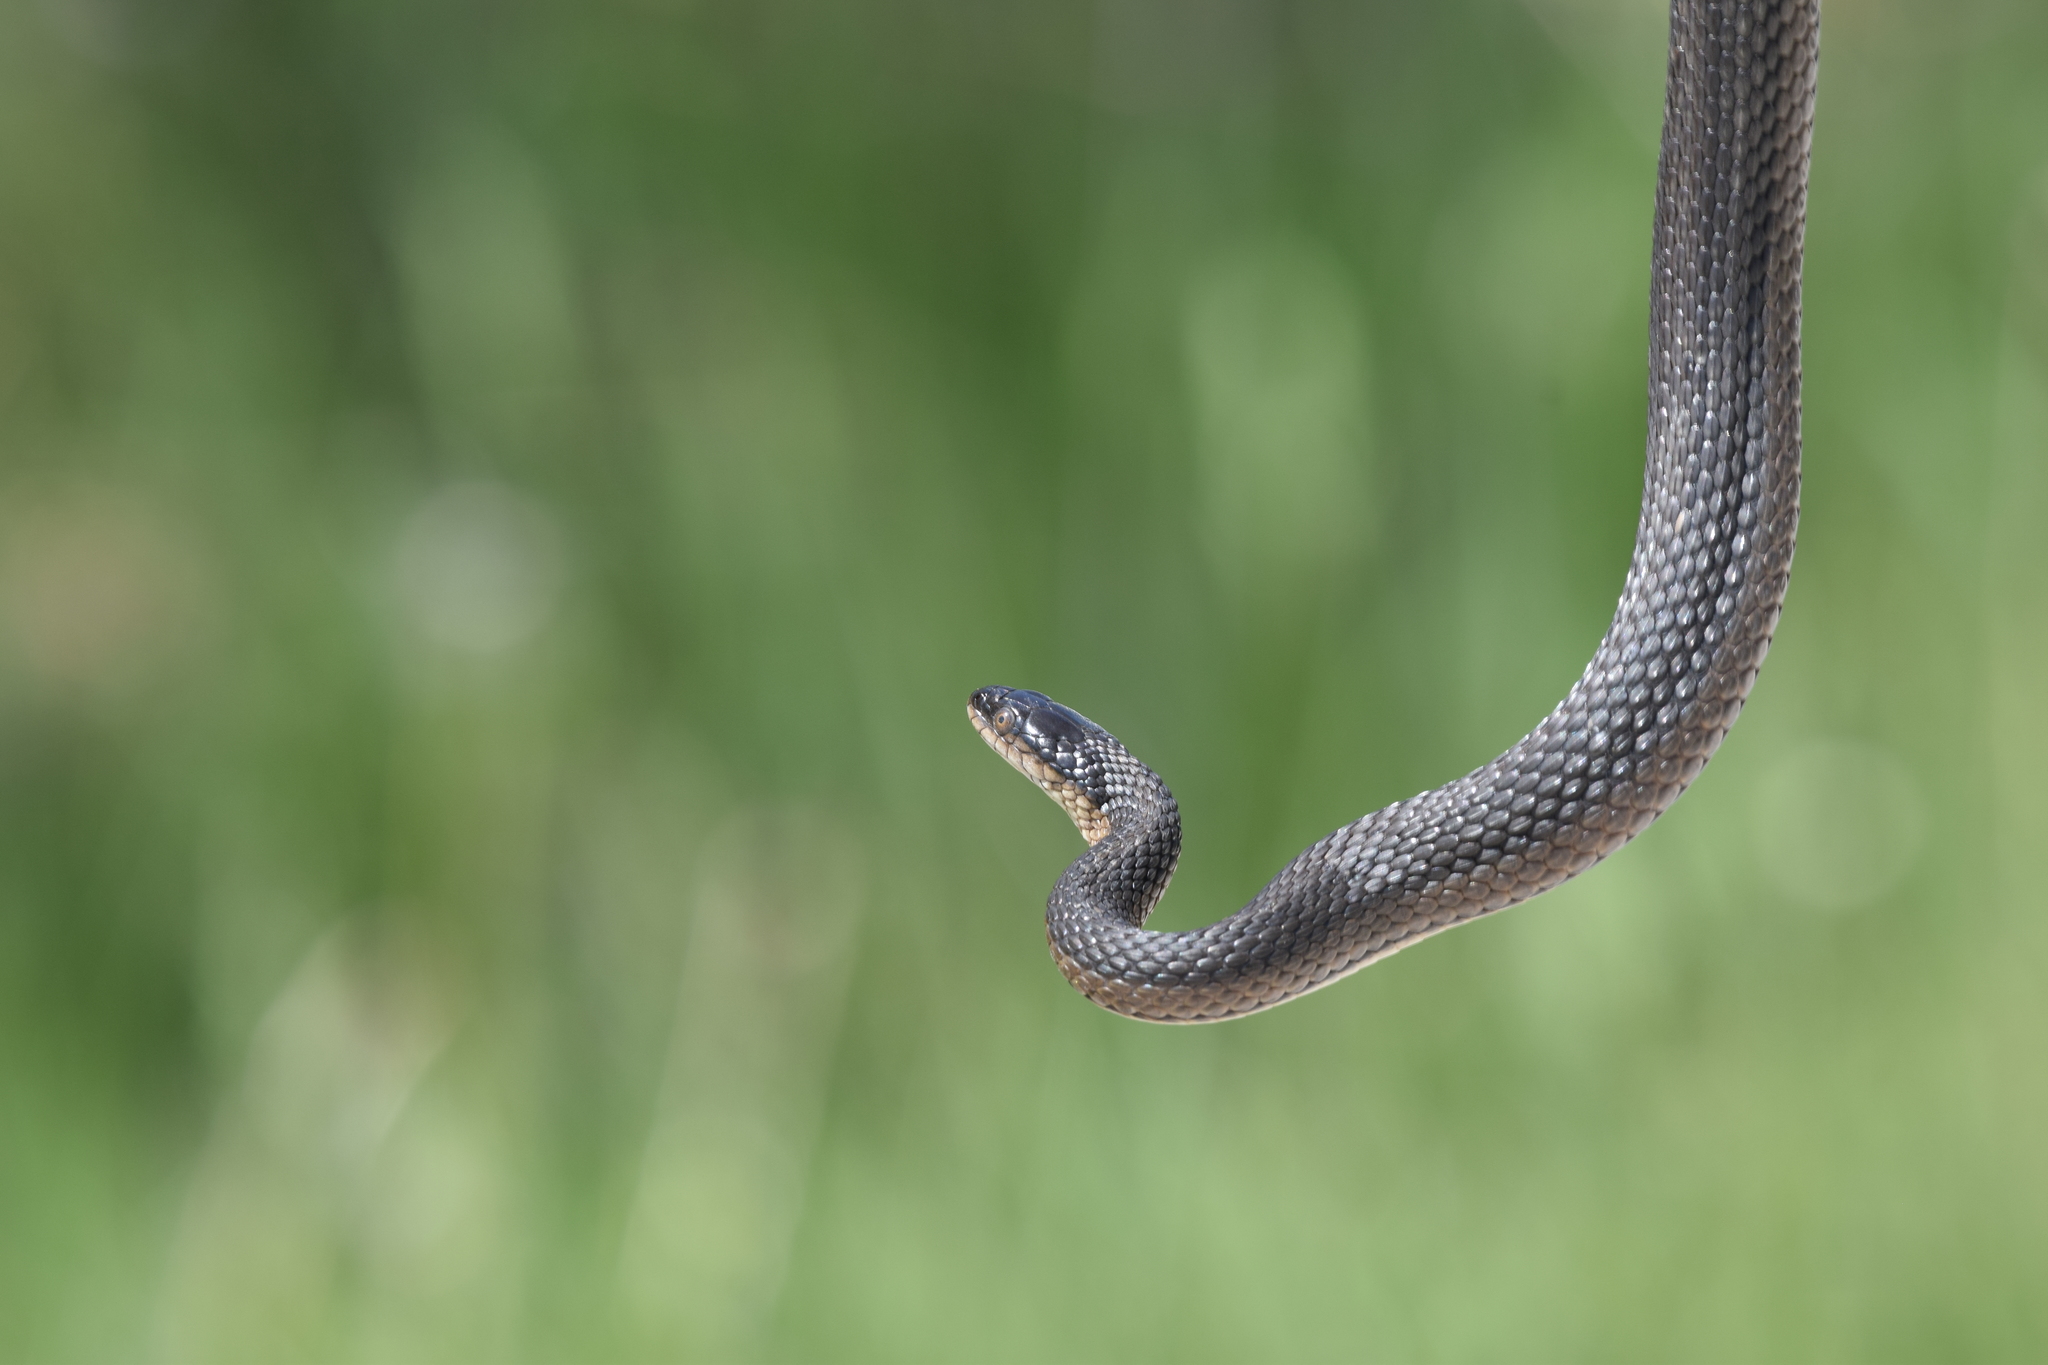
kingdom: Animalia
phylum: Chordata
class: Squamata
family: Colubridae
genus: Regina
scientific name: Regina grahamii
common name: Graham's crayfish snake
